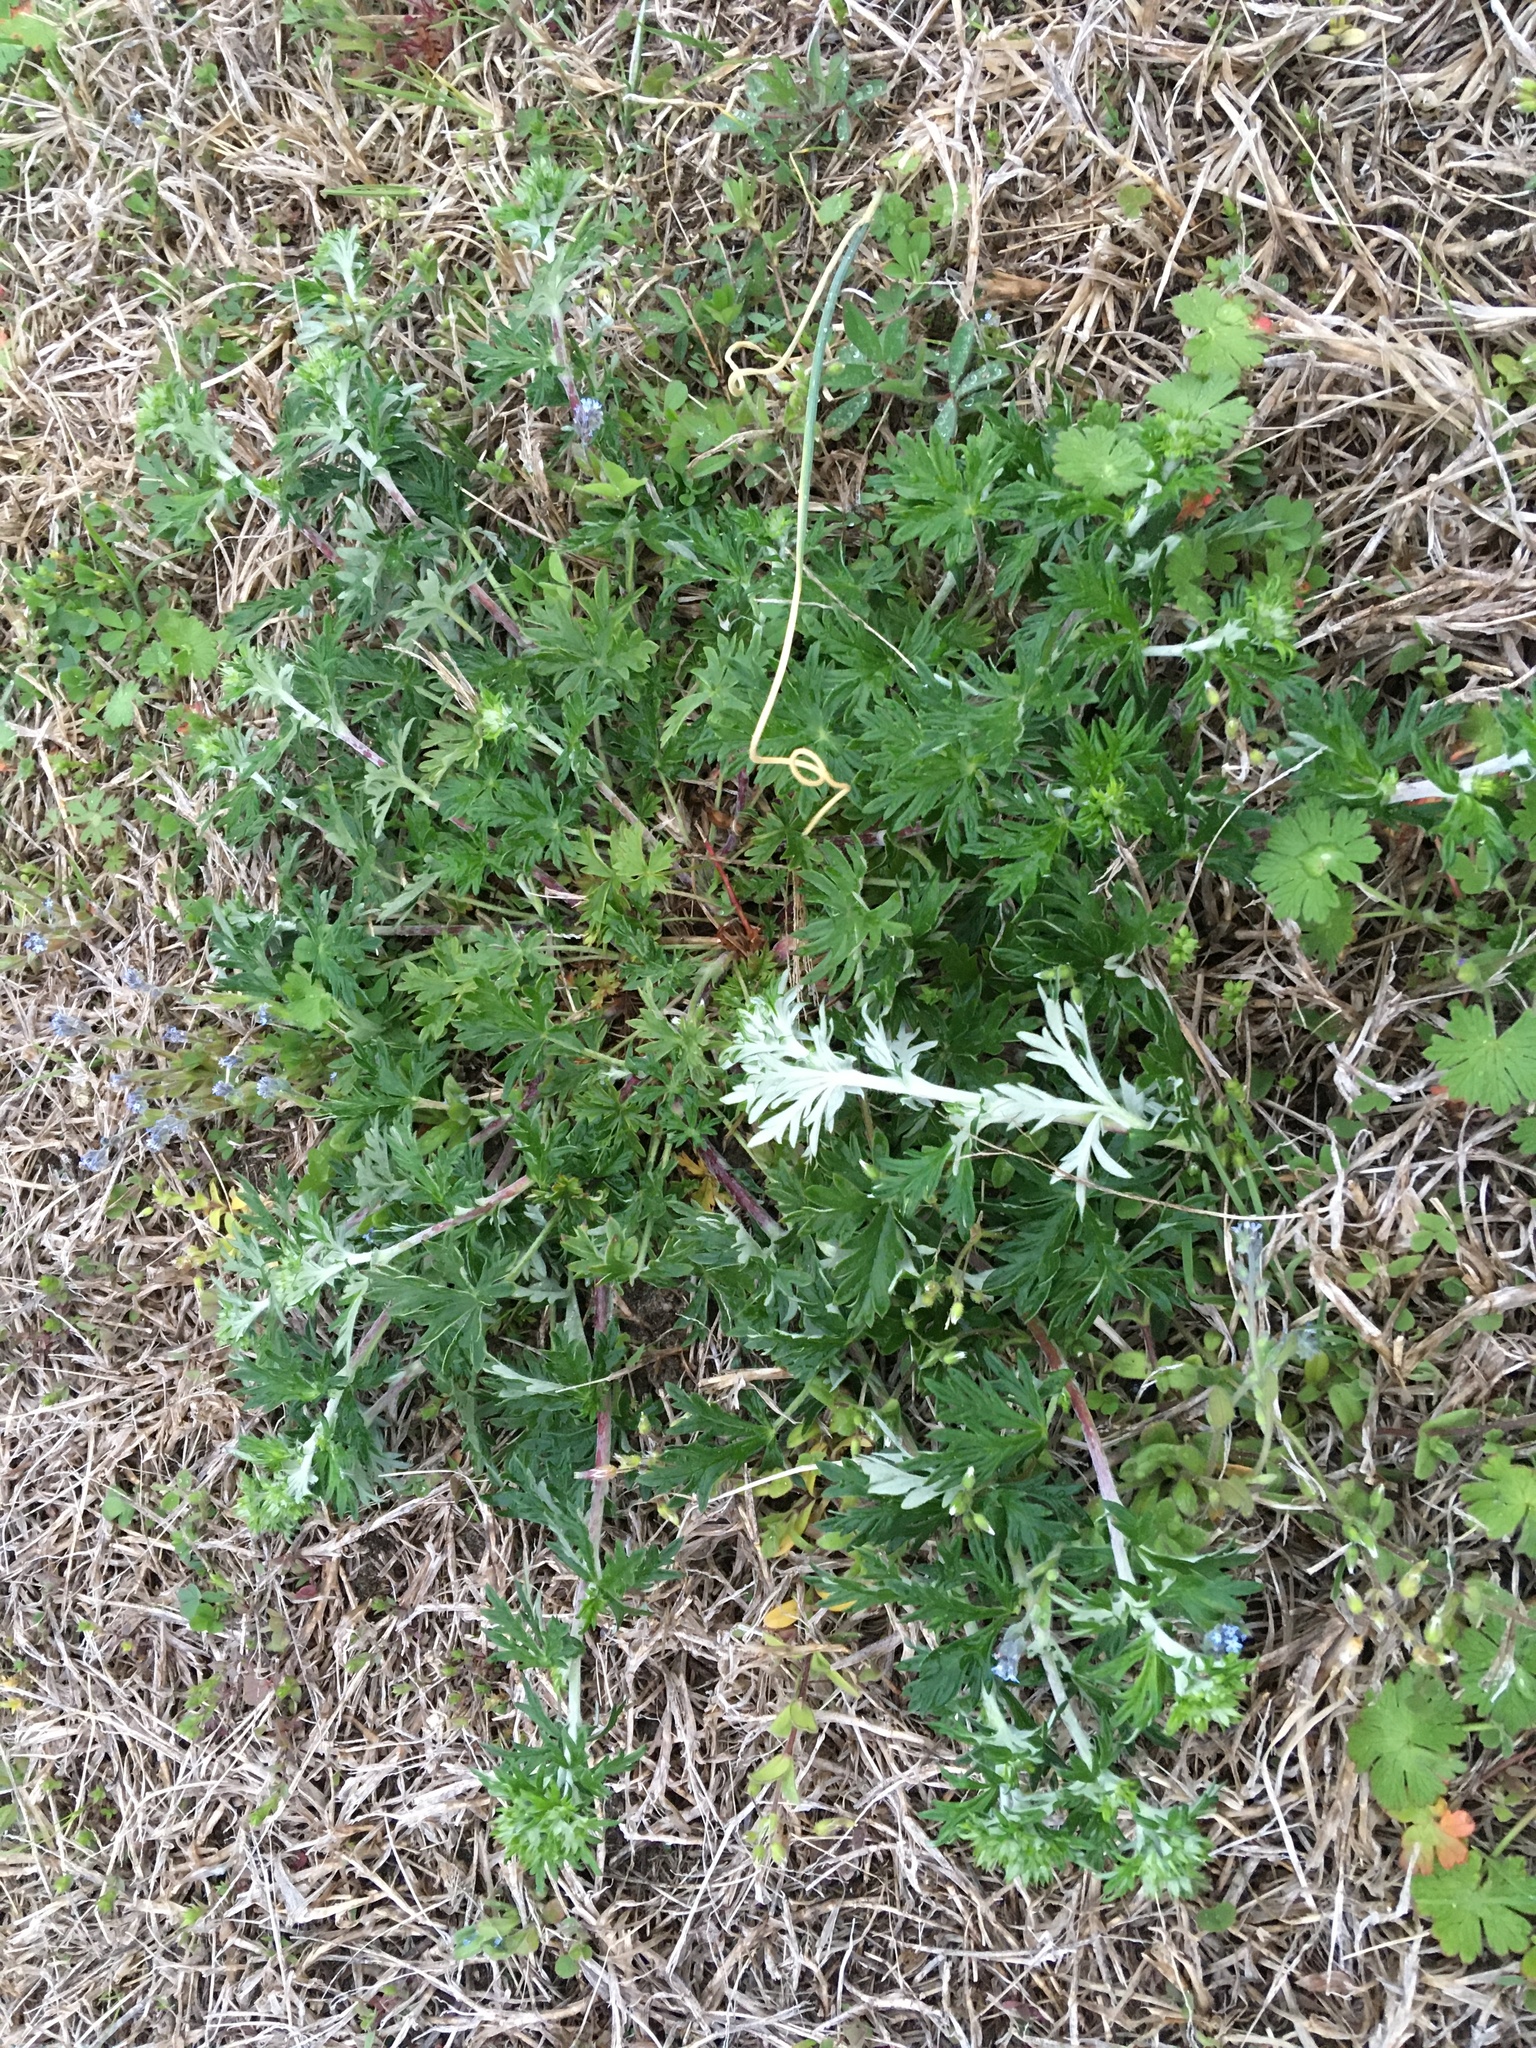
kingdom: Plantae
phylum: Tracheophyta
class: Magnoliopsida
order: Rosales
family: Rosaceae
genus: Potentilla
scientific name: Potentilla argentea
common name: Hoary cinquefoil
